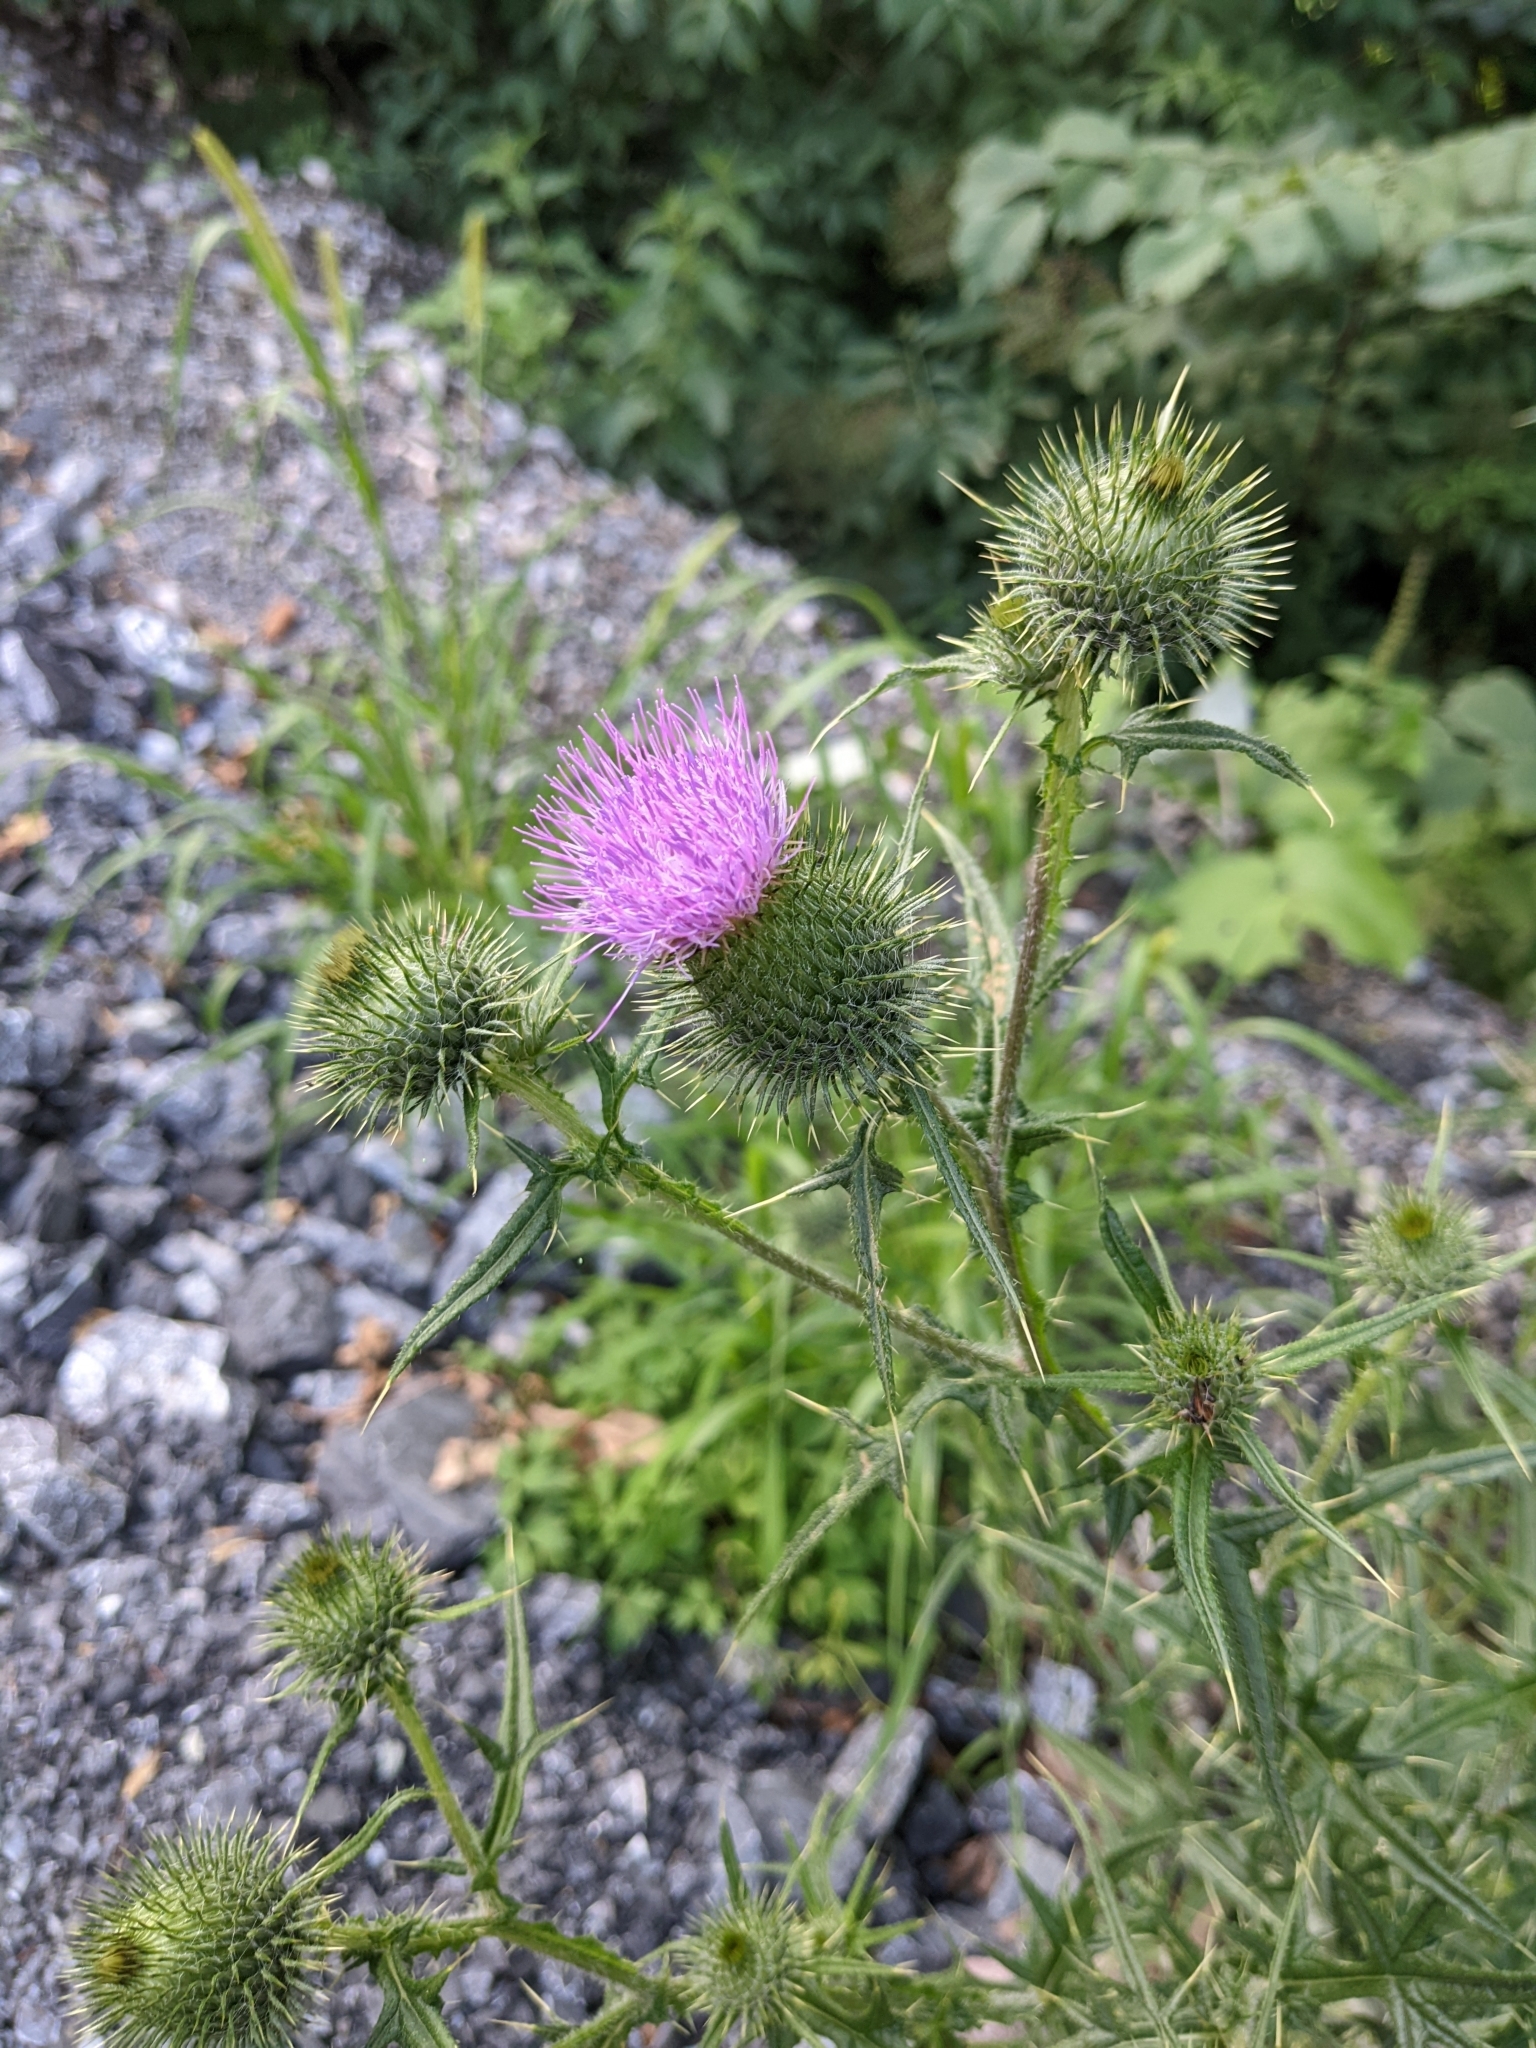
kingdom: Plantae
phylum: Tracheophyta
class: Magnoliopsida
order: Asterales
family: Asteraceae
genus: Cirsium
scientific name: Cirsium vulgare
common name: Bull thistle
